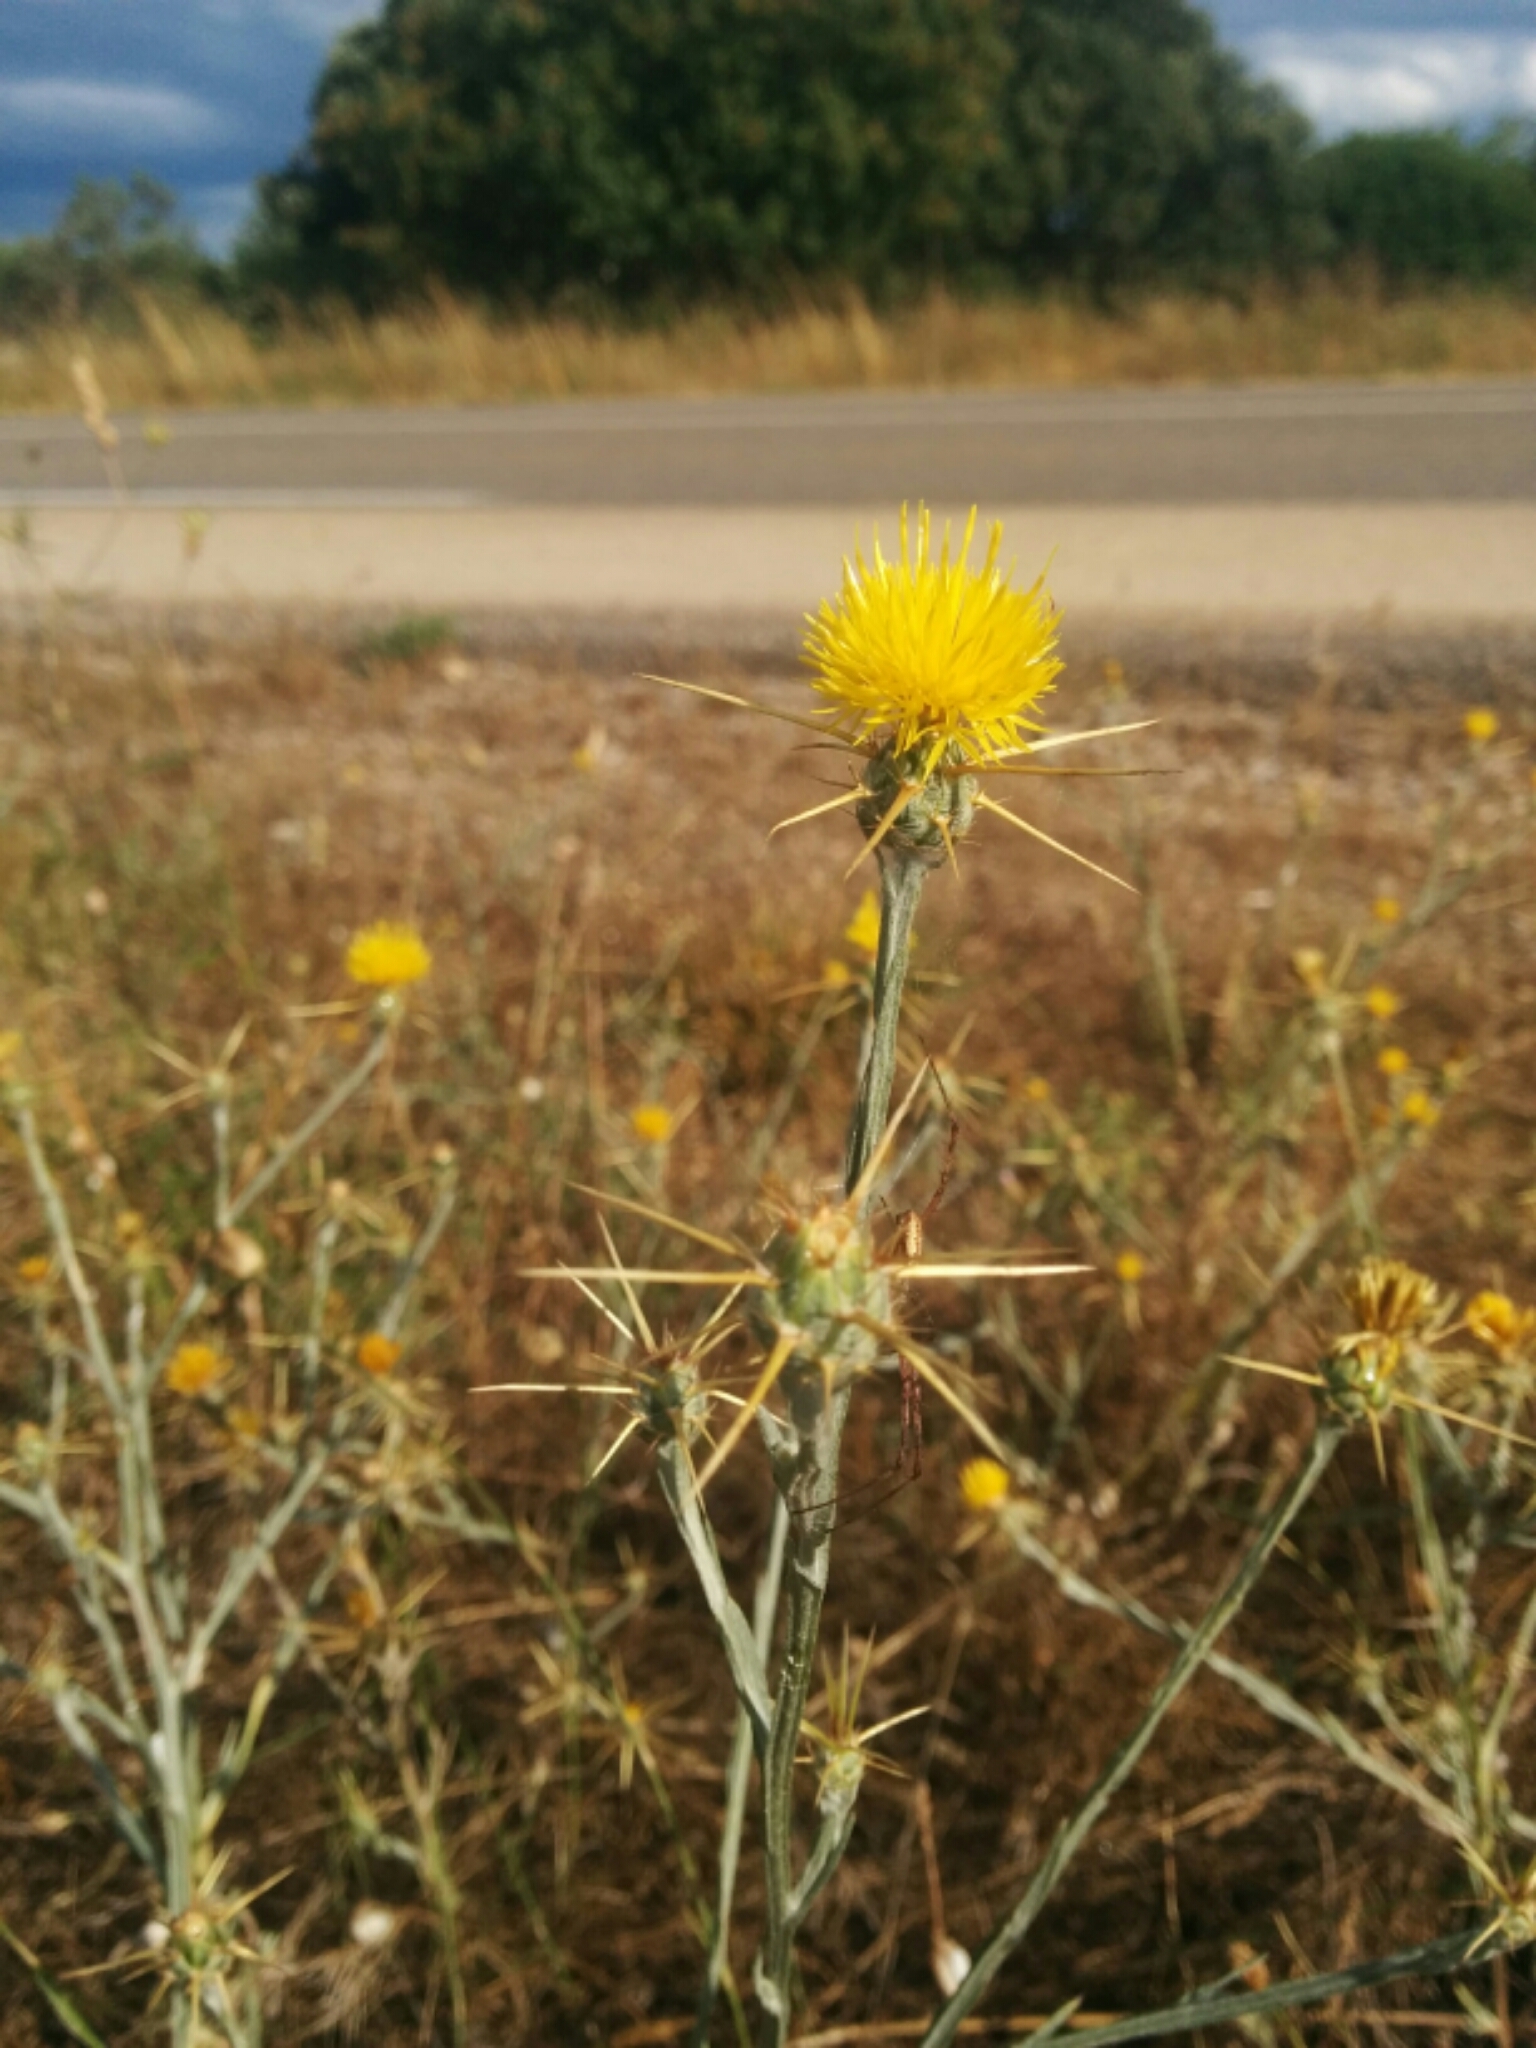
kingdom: Plantae
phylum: Tracheophyta
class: Magnoliopsida
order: Asterales
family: Asteraceae
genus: Centaurea
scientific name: Centaurea solstitialis
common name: Yellow star-thistle
